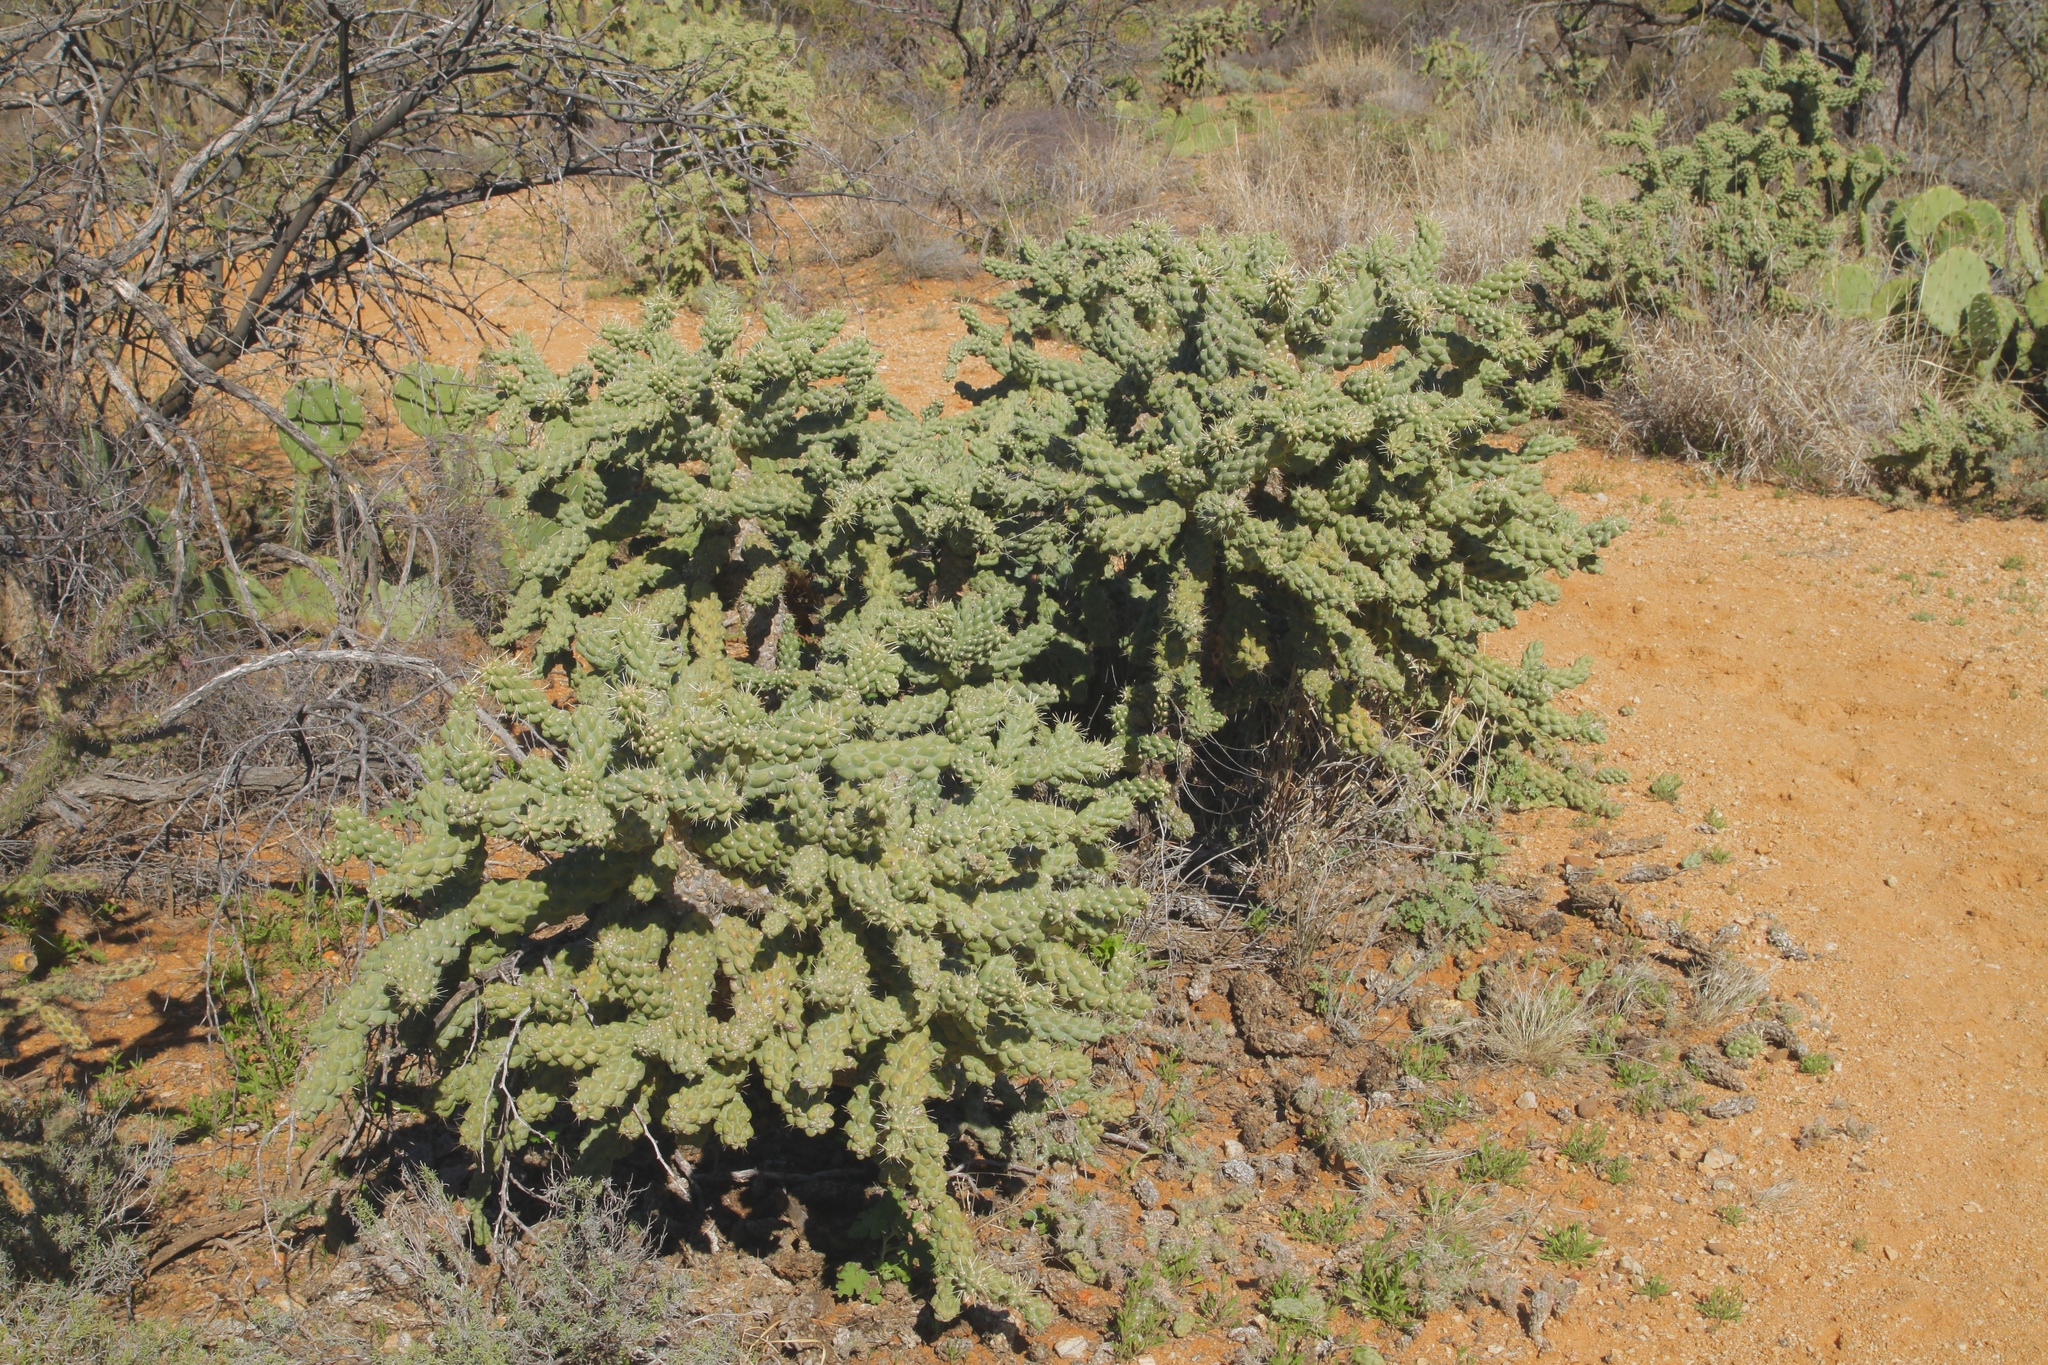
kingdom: Plantae
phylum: Tracheophyta
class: Magnoliopsida
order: Caryophyllales
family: Cactaceae
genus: Cylindropuntia
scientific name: Cylindropuntia fulgida
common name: Jumping cholla
